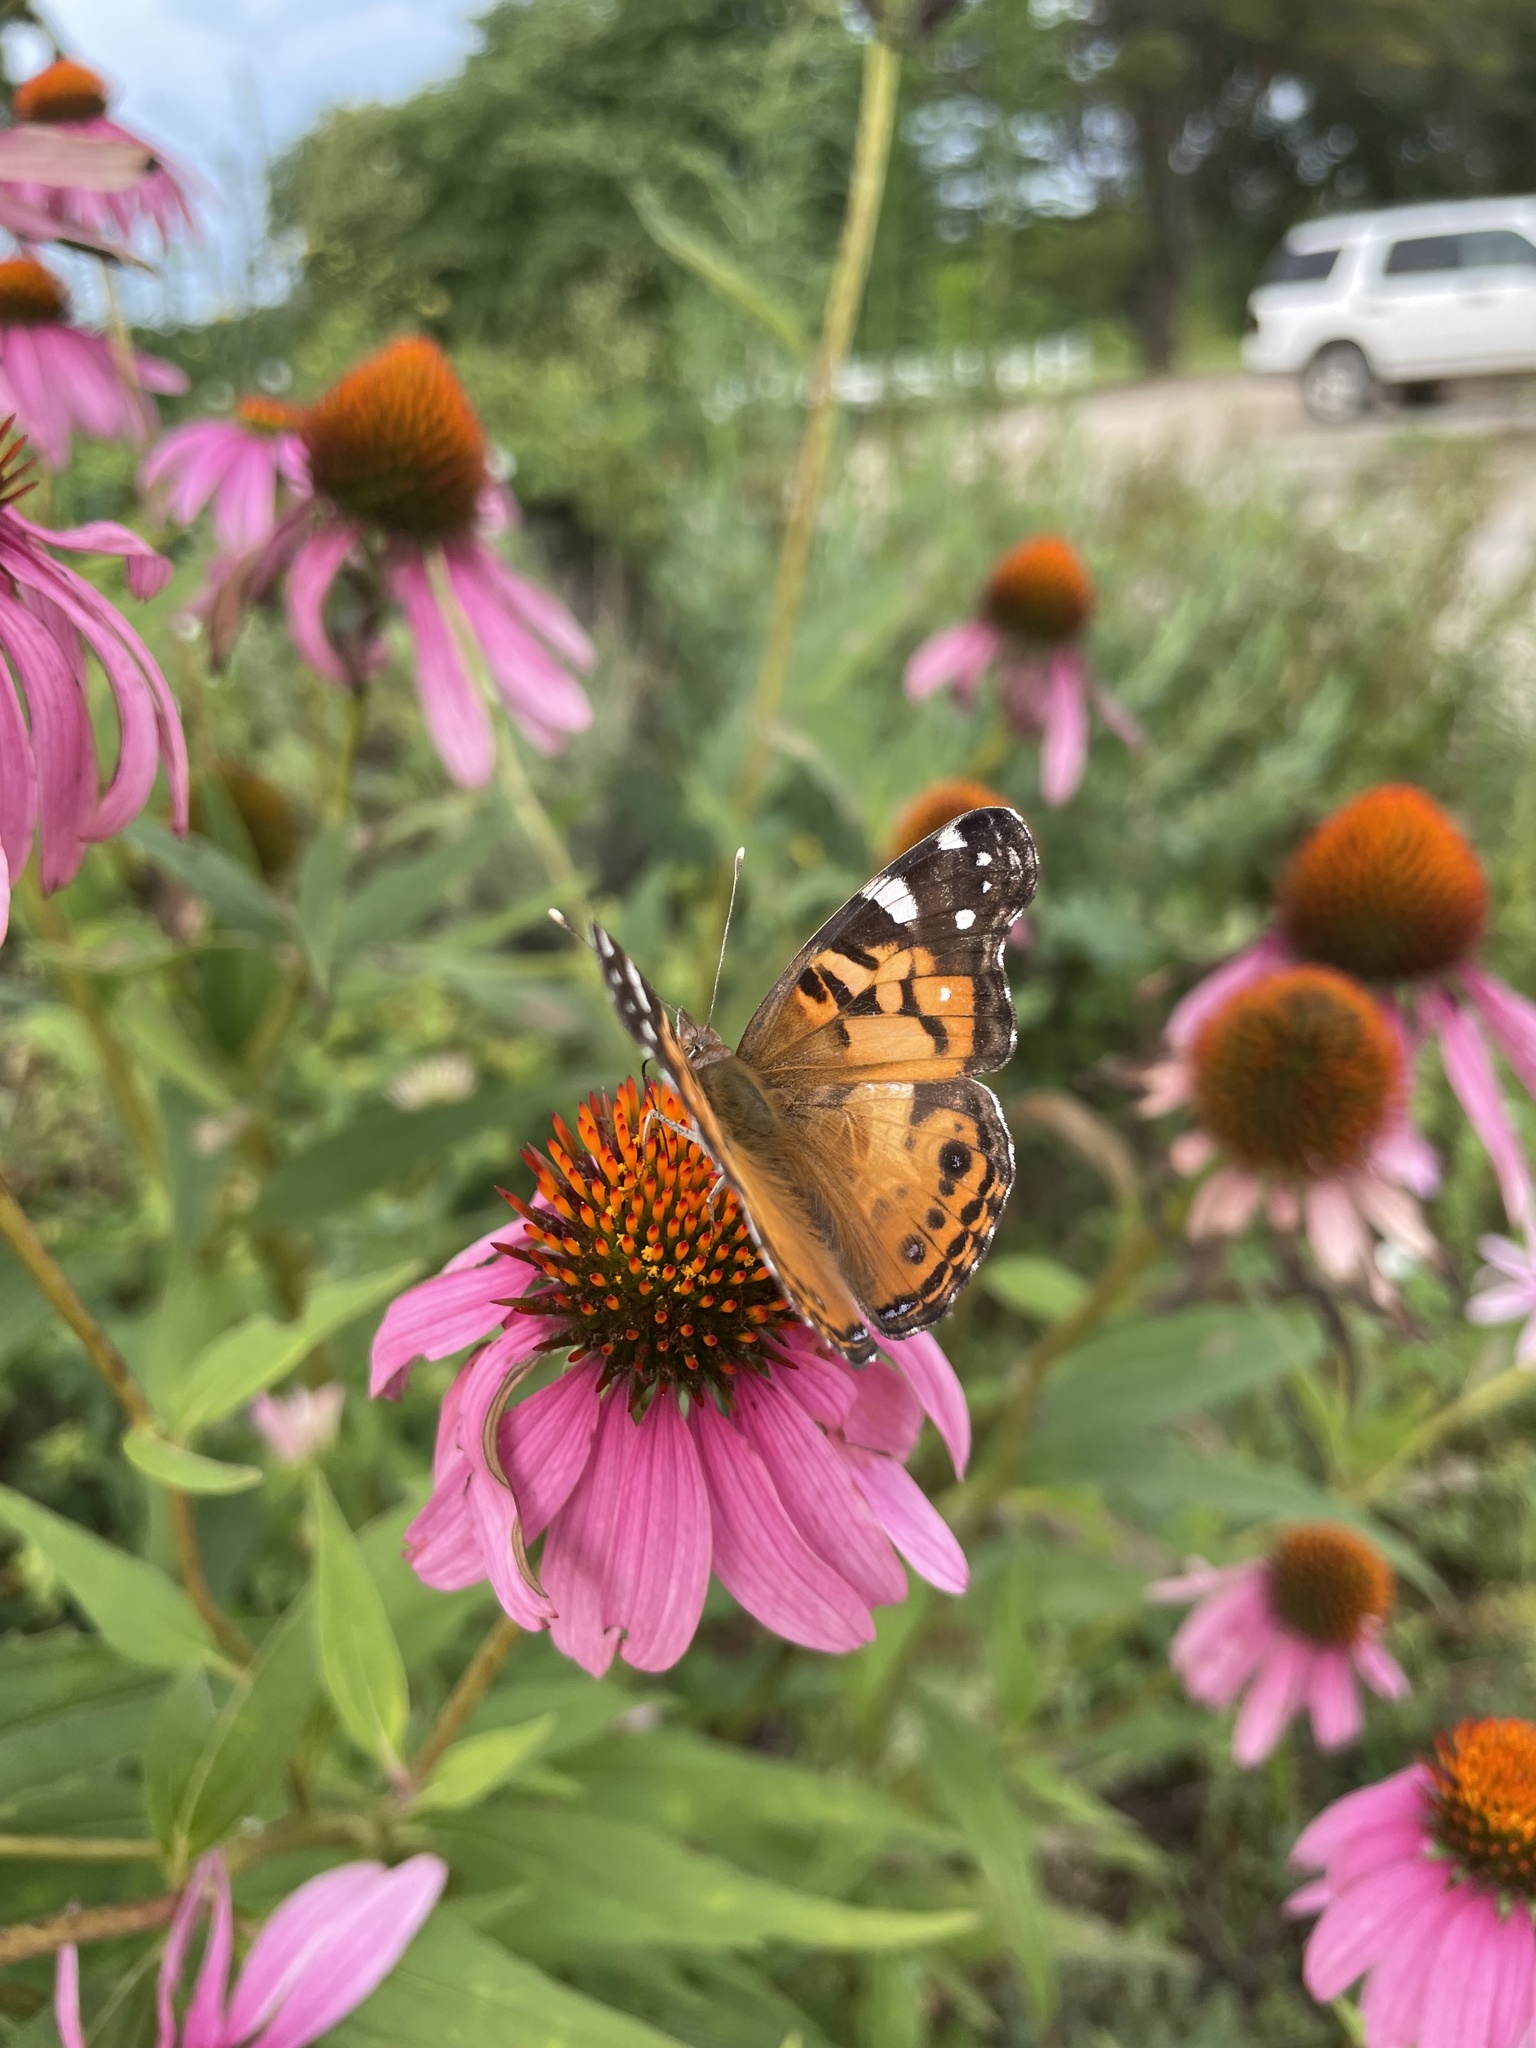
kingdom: Animalia
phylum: Arthropoda
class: Insecta
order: Lepidoptera
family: Nymphalidae
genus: Vanessa
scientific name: Vanessa virginiensis
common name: American lady
